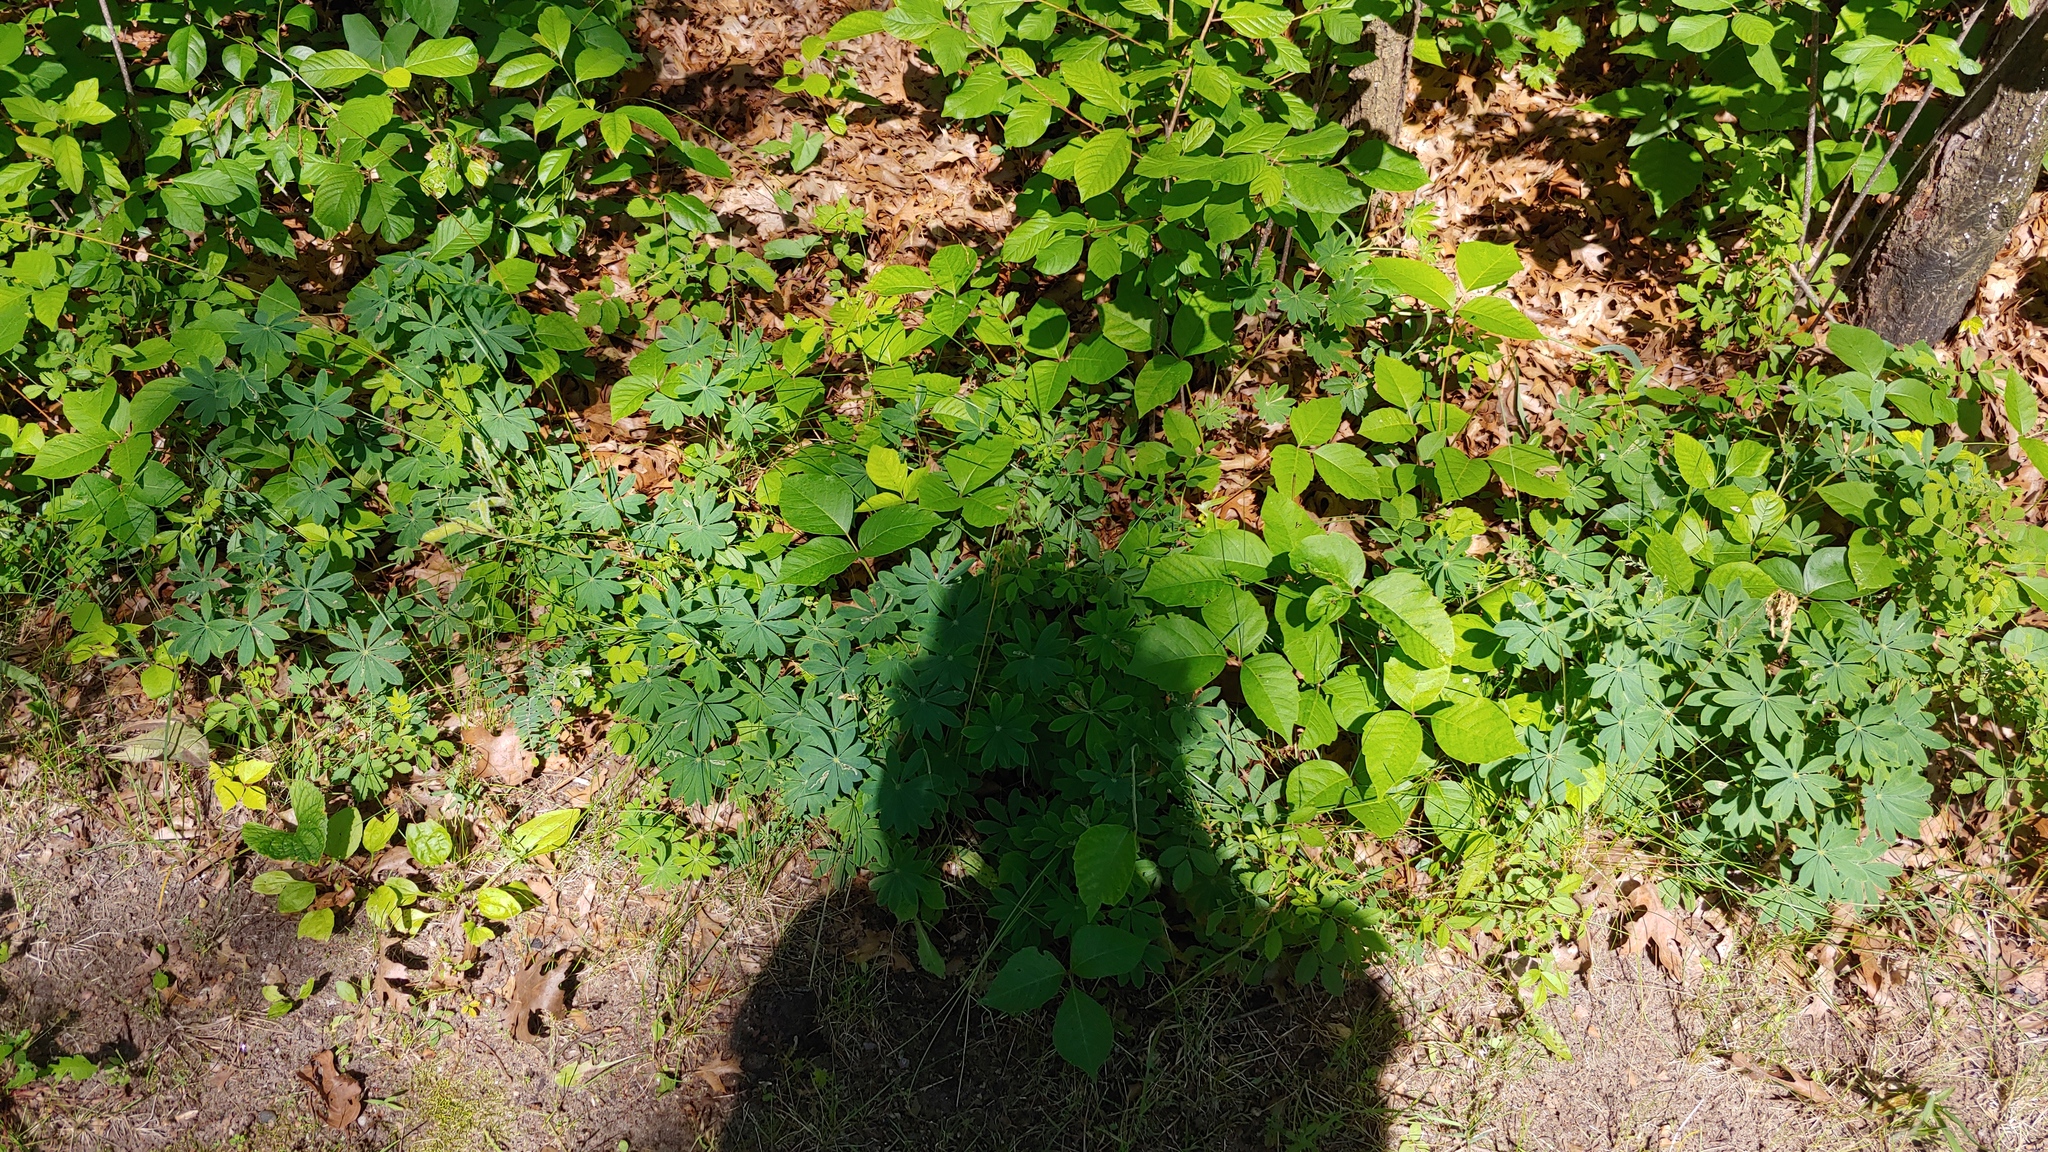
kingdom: Plantae
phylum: Tracheophyta
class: Magnoliopsida
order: Fabales
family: Fabaceae
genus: Lupinus
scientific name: Lupinus perennis
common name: Sundial lupine
